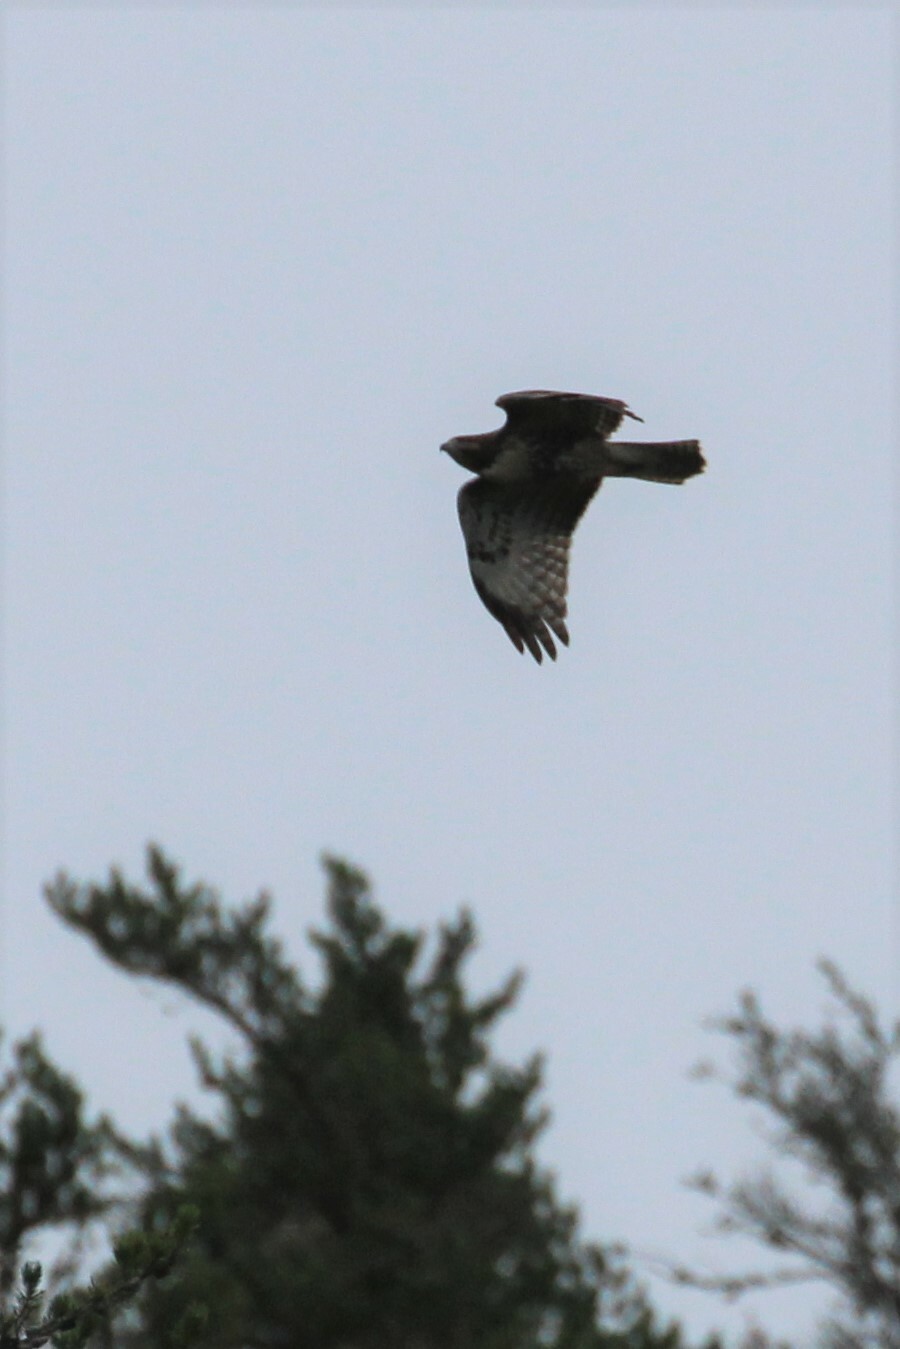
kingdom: Animalia
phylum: Chordata
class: Aves
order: Accipitriformes
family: Accipitridae
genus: Buteo
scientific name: Buteo jamaicensis
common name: Red-tailed hawk
